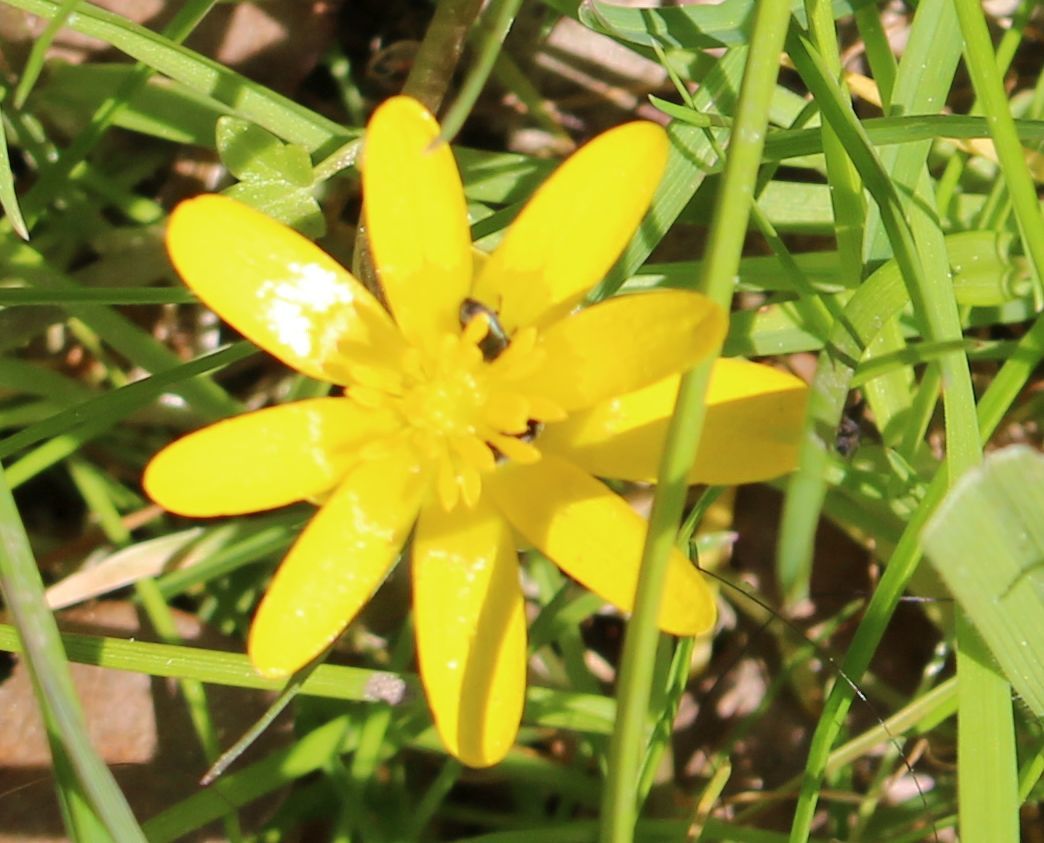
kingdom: Plantae
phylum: Tracheophyta
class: Magnoliopsida
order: Ranunculales
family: Ranunculaceae
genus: Ficaria
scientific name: Ficaria verna
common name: Lesser celandine
